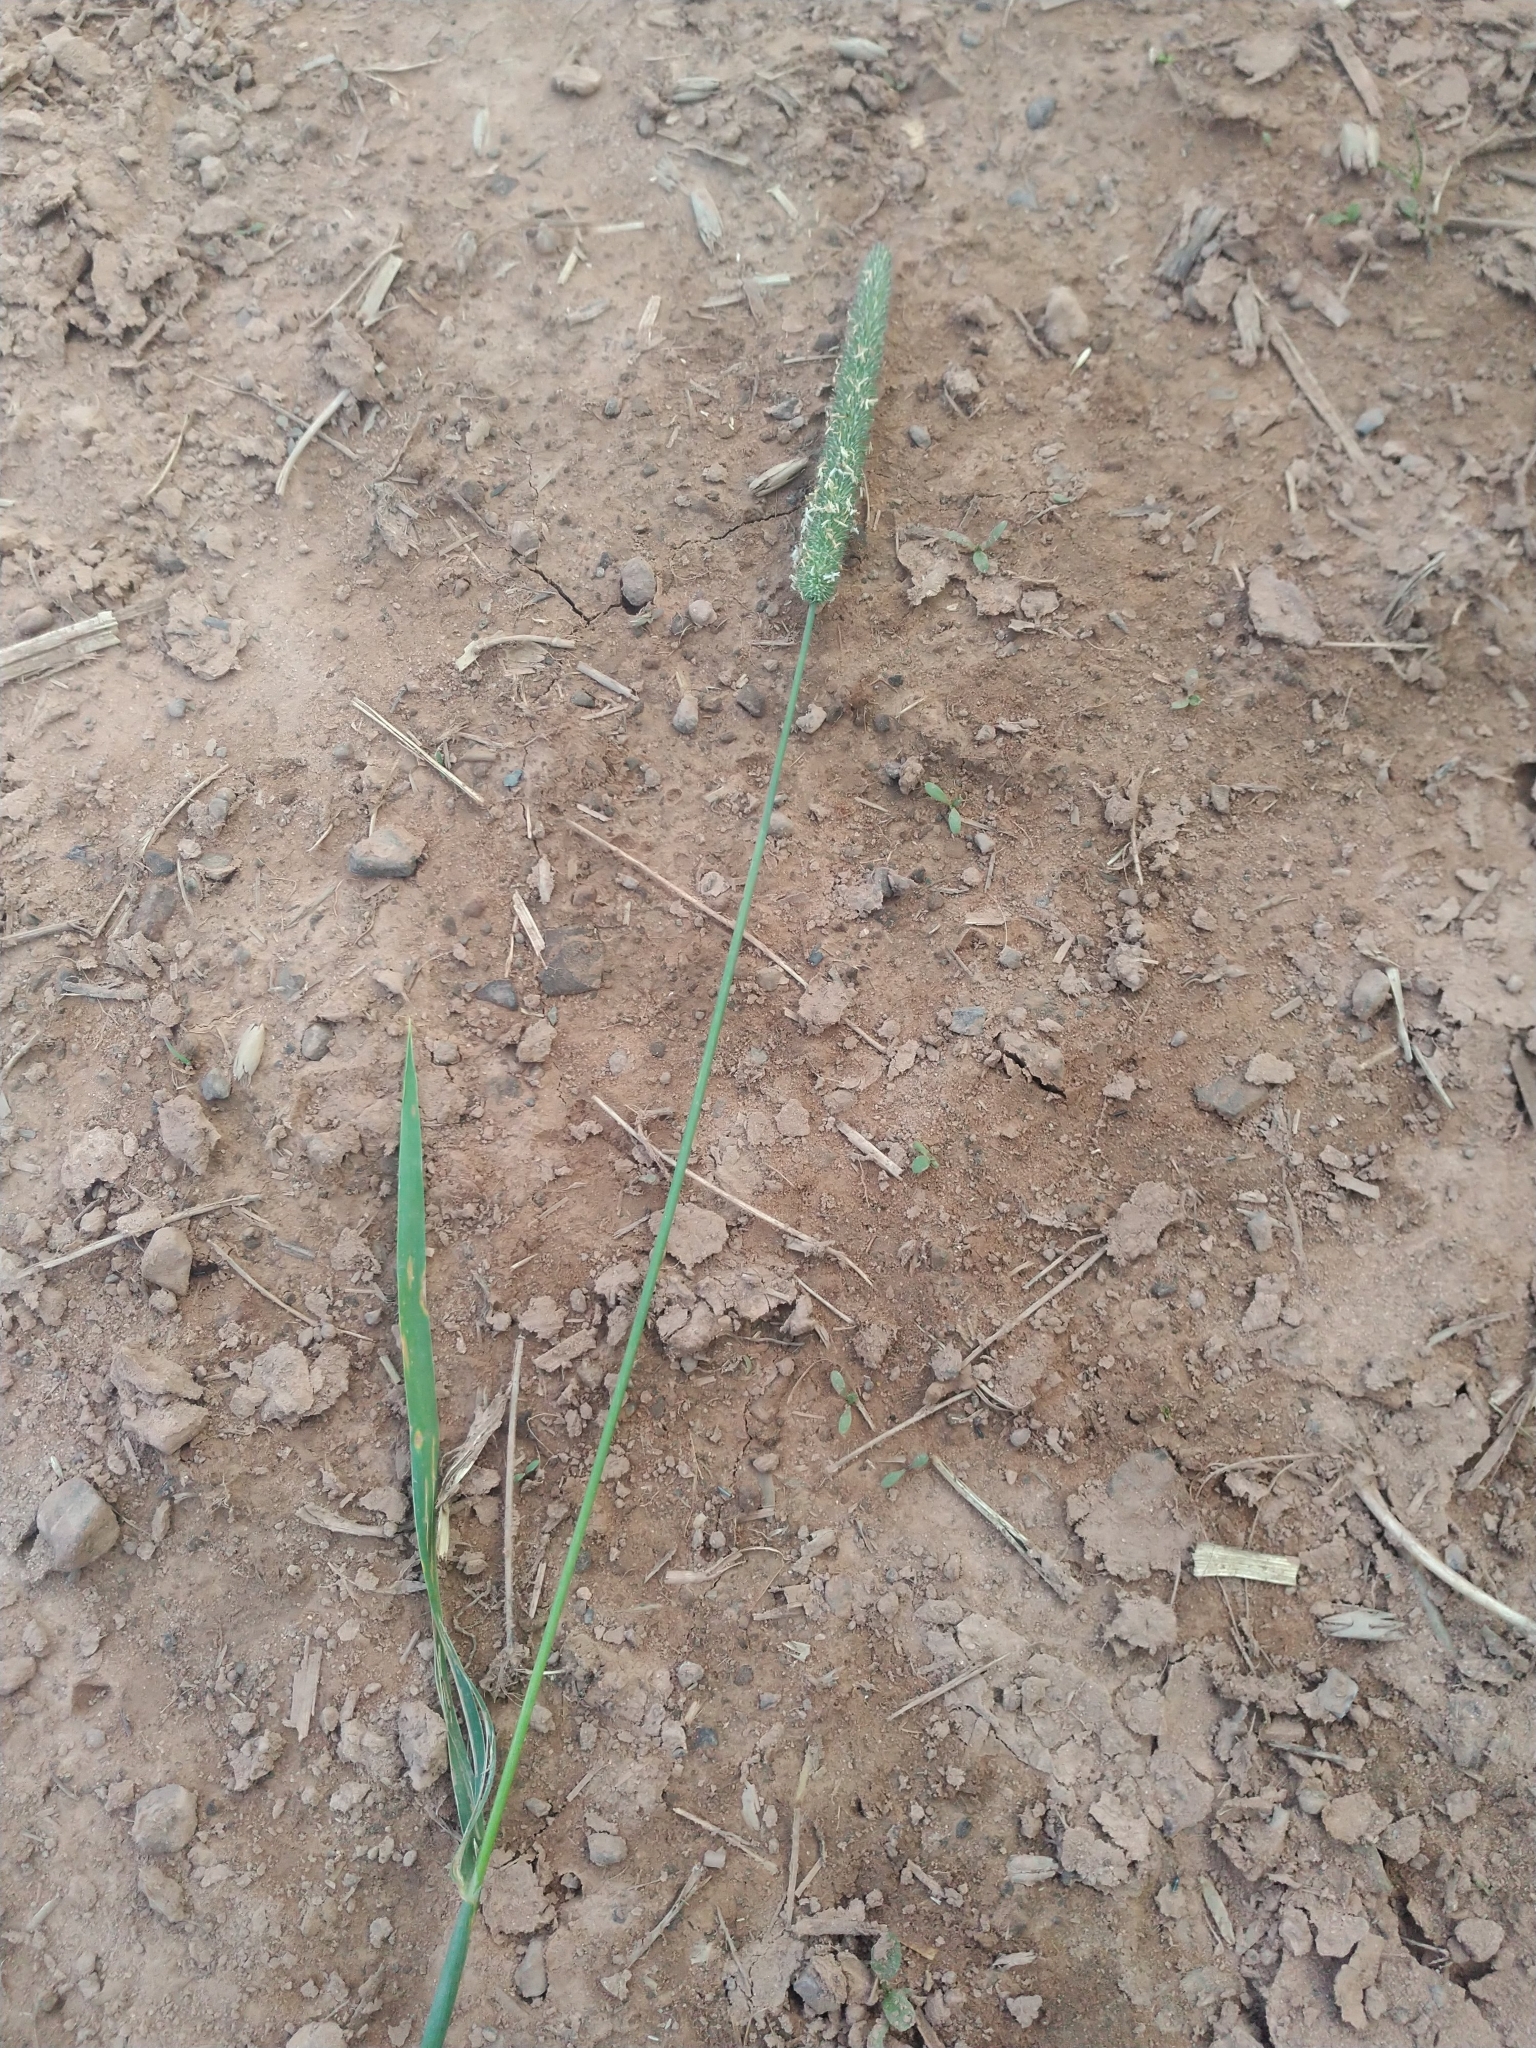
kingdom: Plantae
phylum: Tracheophyta
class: Liliopsida
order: Poales
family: Poaceae
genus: Phleum
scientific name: Phleum pratense
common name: Timothy grass
